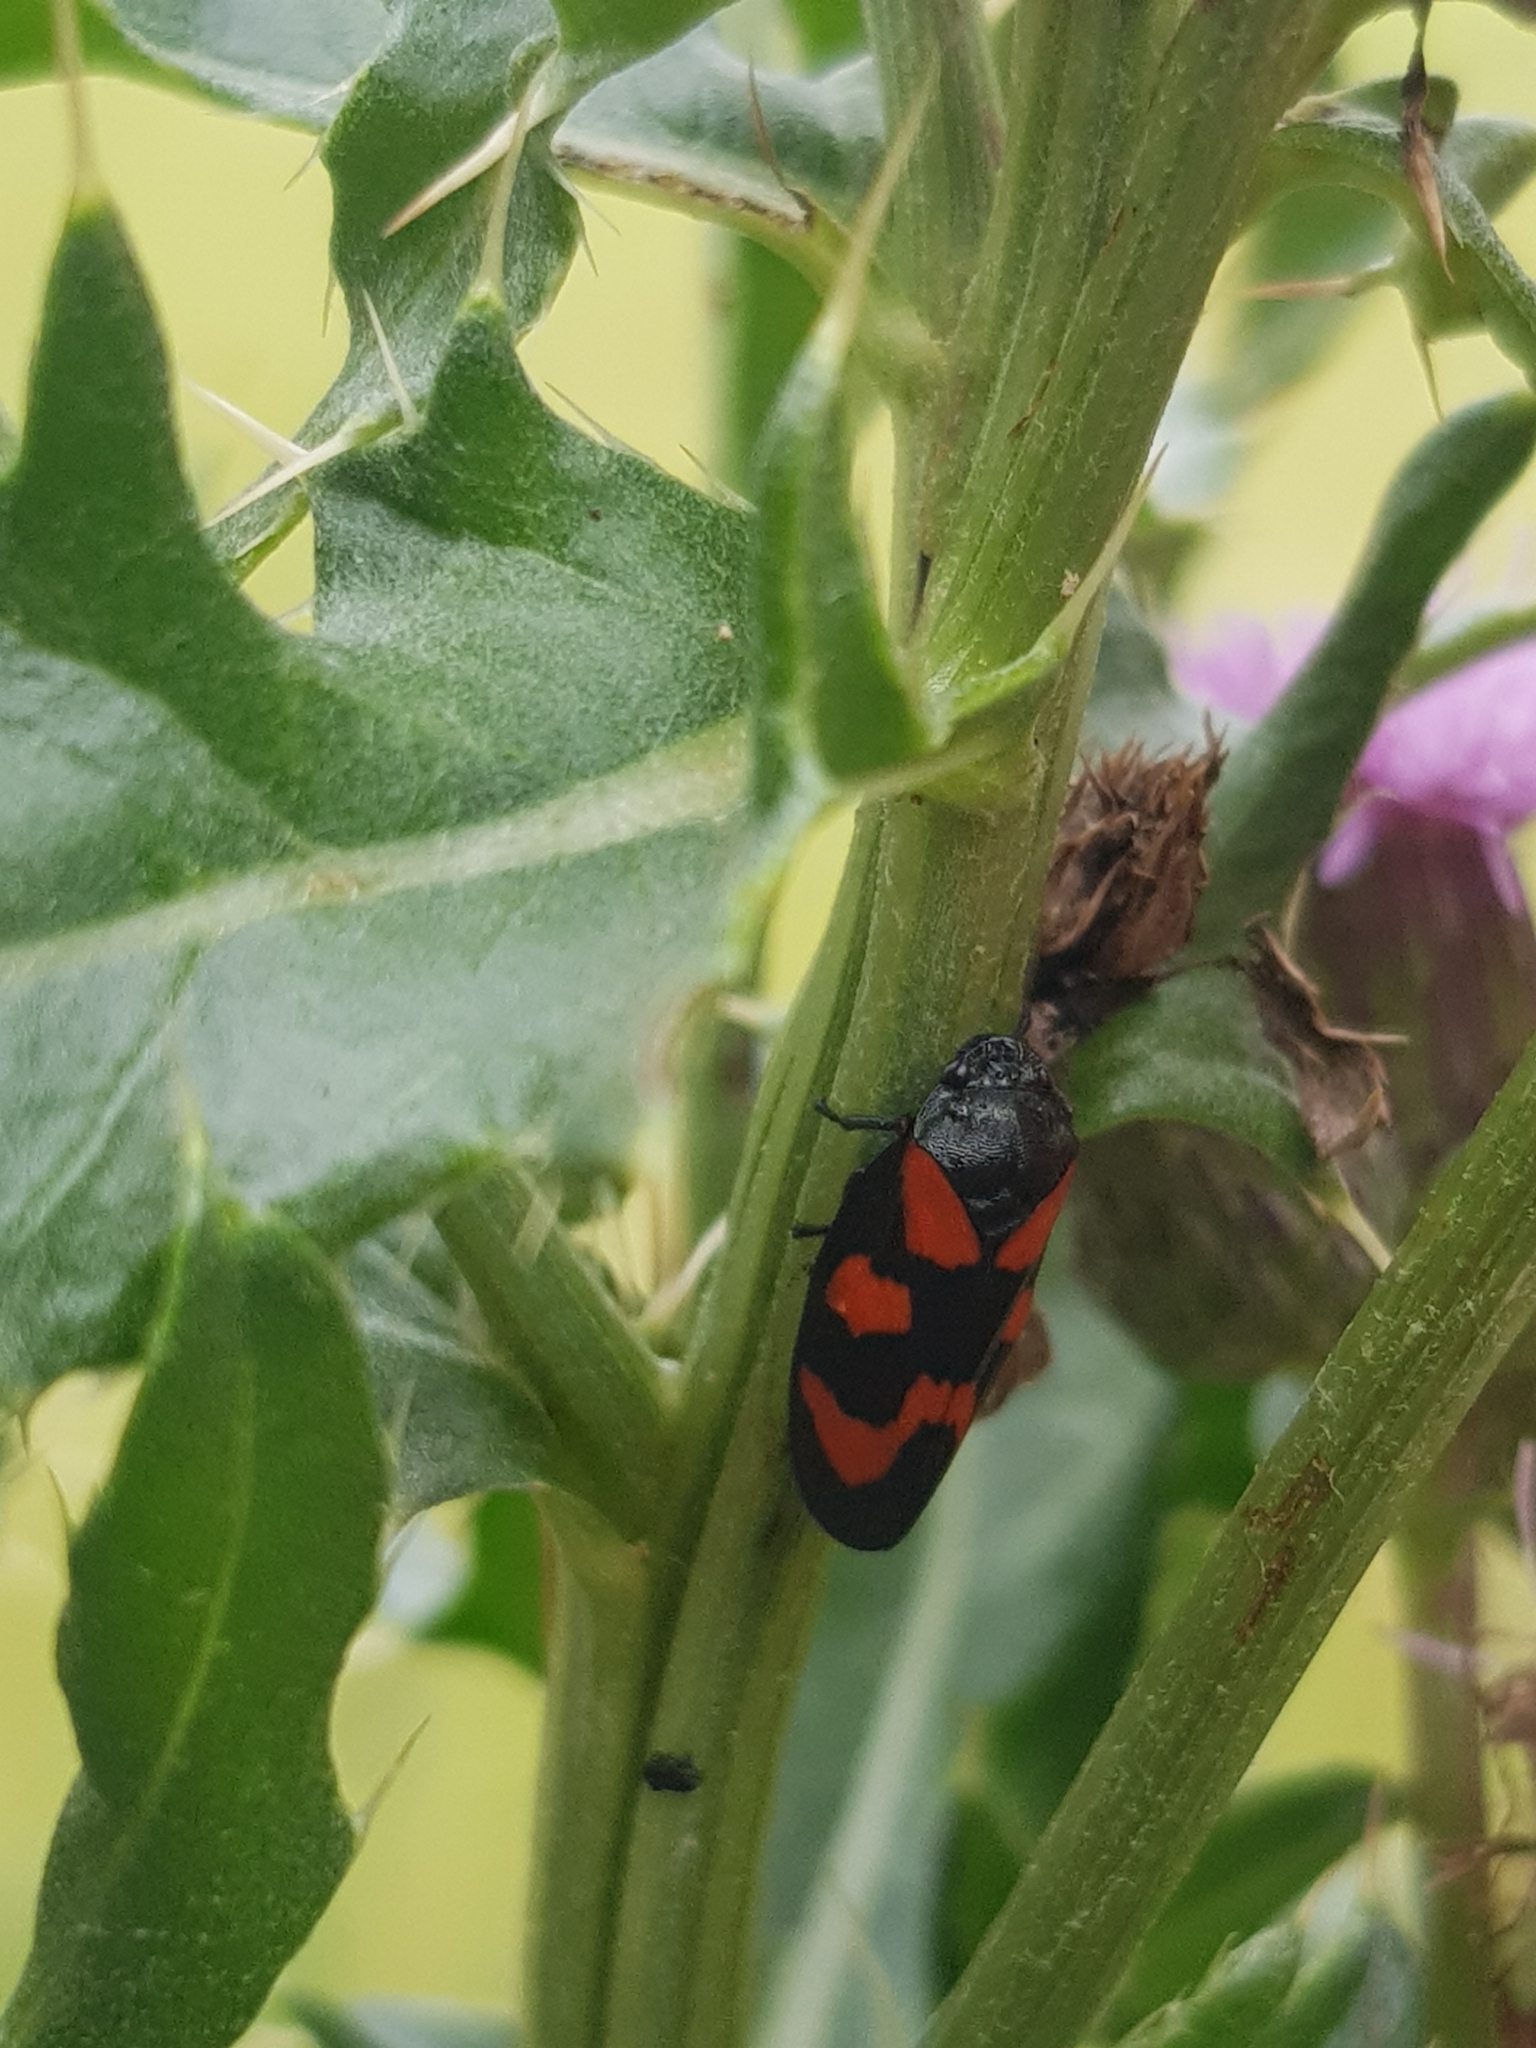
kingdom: Animalia
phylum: Arthropoda
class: Insecta
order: Hemiptera
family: Cercopidae
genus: Cercopis
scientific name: Cercopis vulnerata
